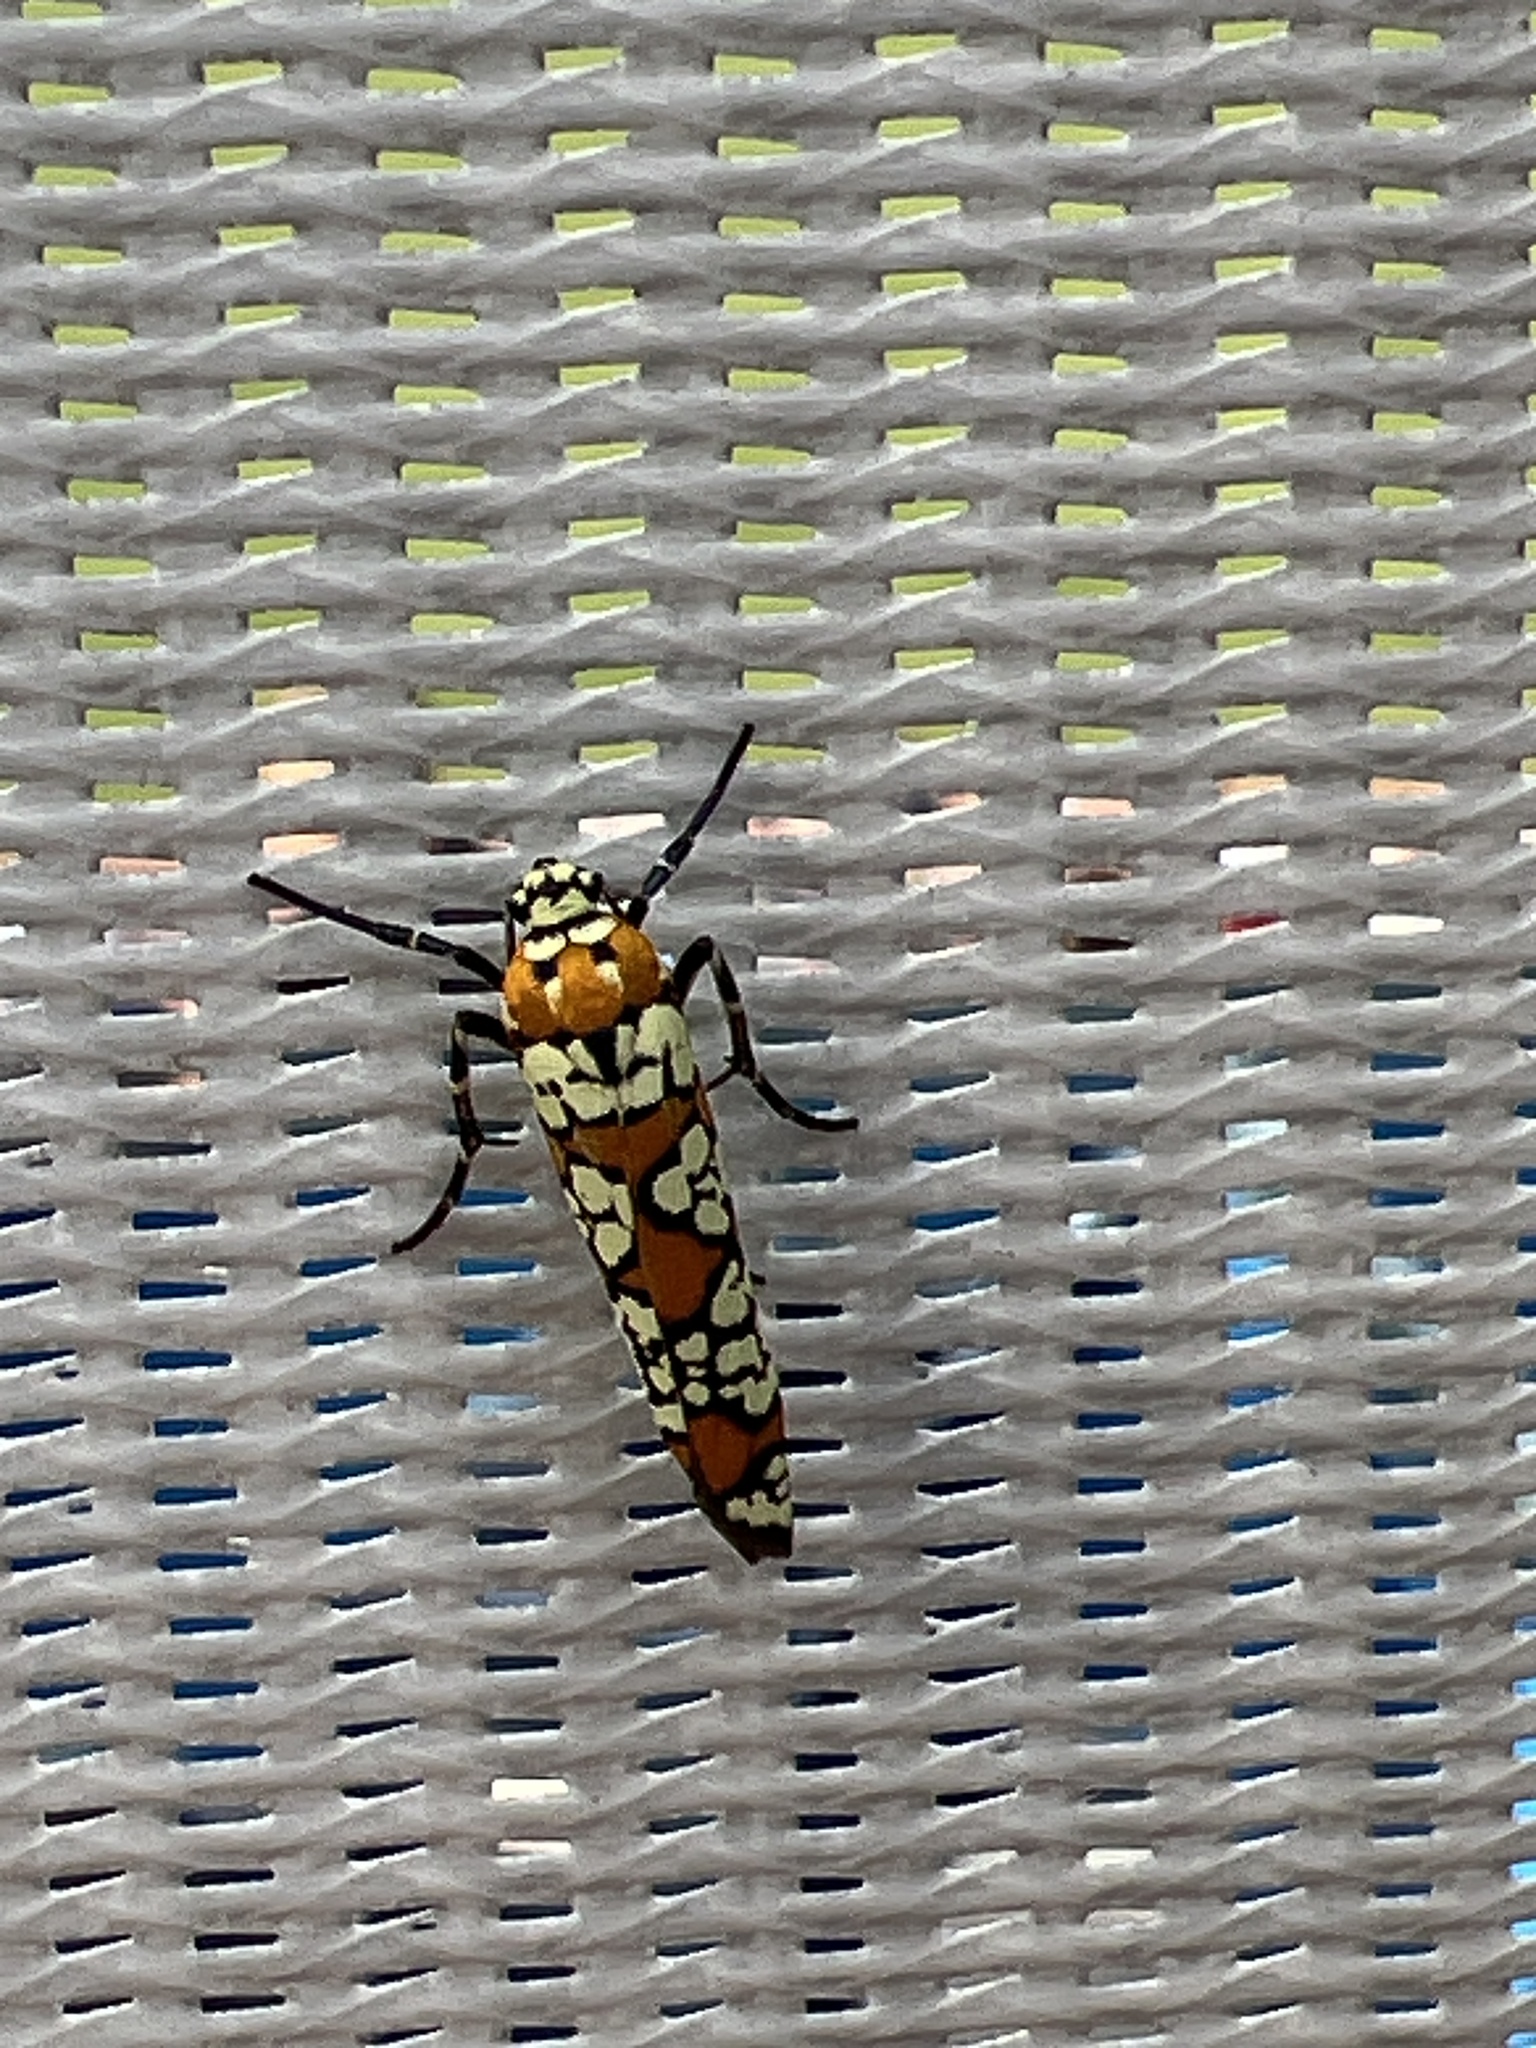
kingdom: Animalia
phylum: Arthropoda
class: Insecta
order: Lepidoptera
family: Attevidae
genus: Atteva
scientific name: Atteva punctella
